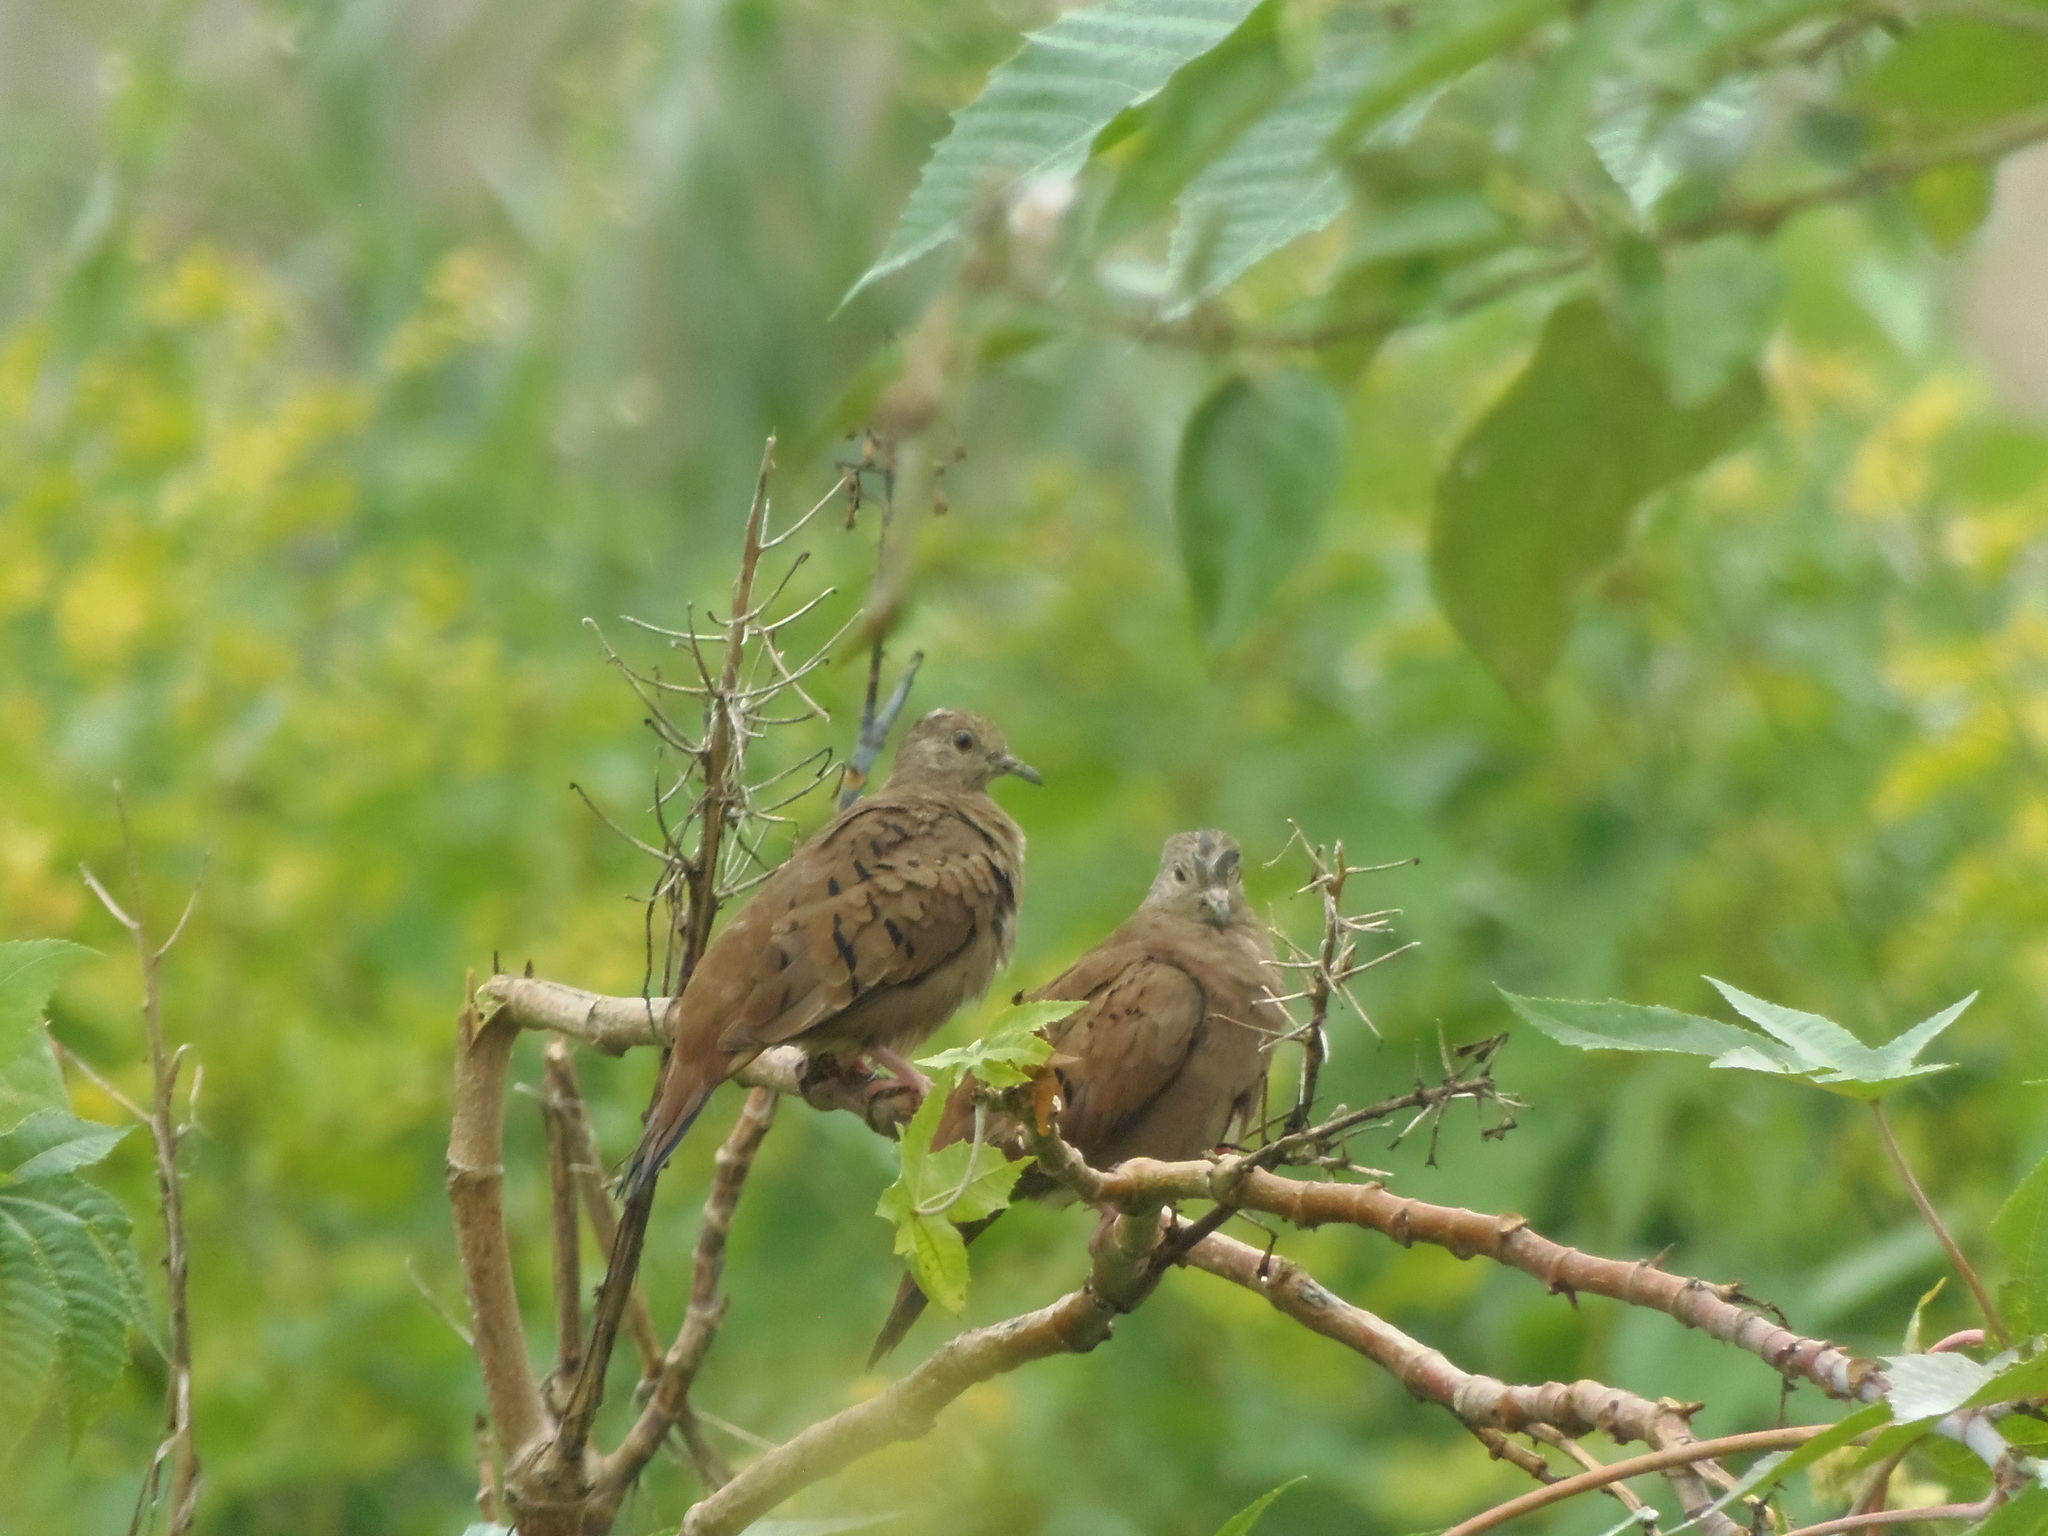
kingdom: Animalia
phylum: Chordata
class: Aves
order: Columbiformes
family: Columbidae
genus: Columbina
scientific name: Columbina talpacoti
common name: Ruddy ground dove
